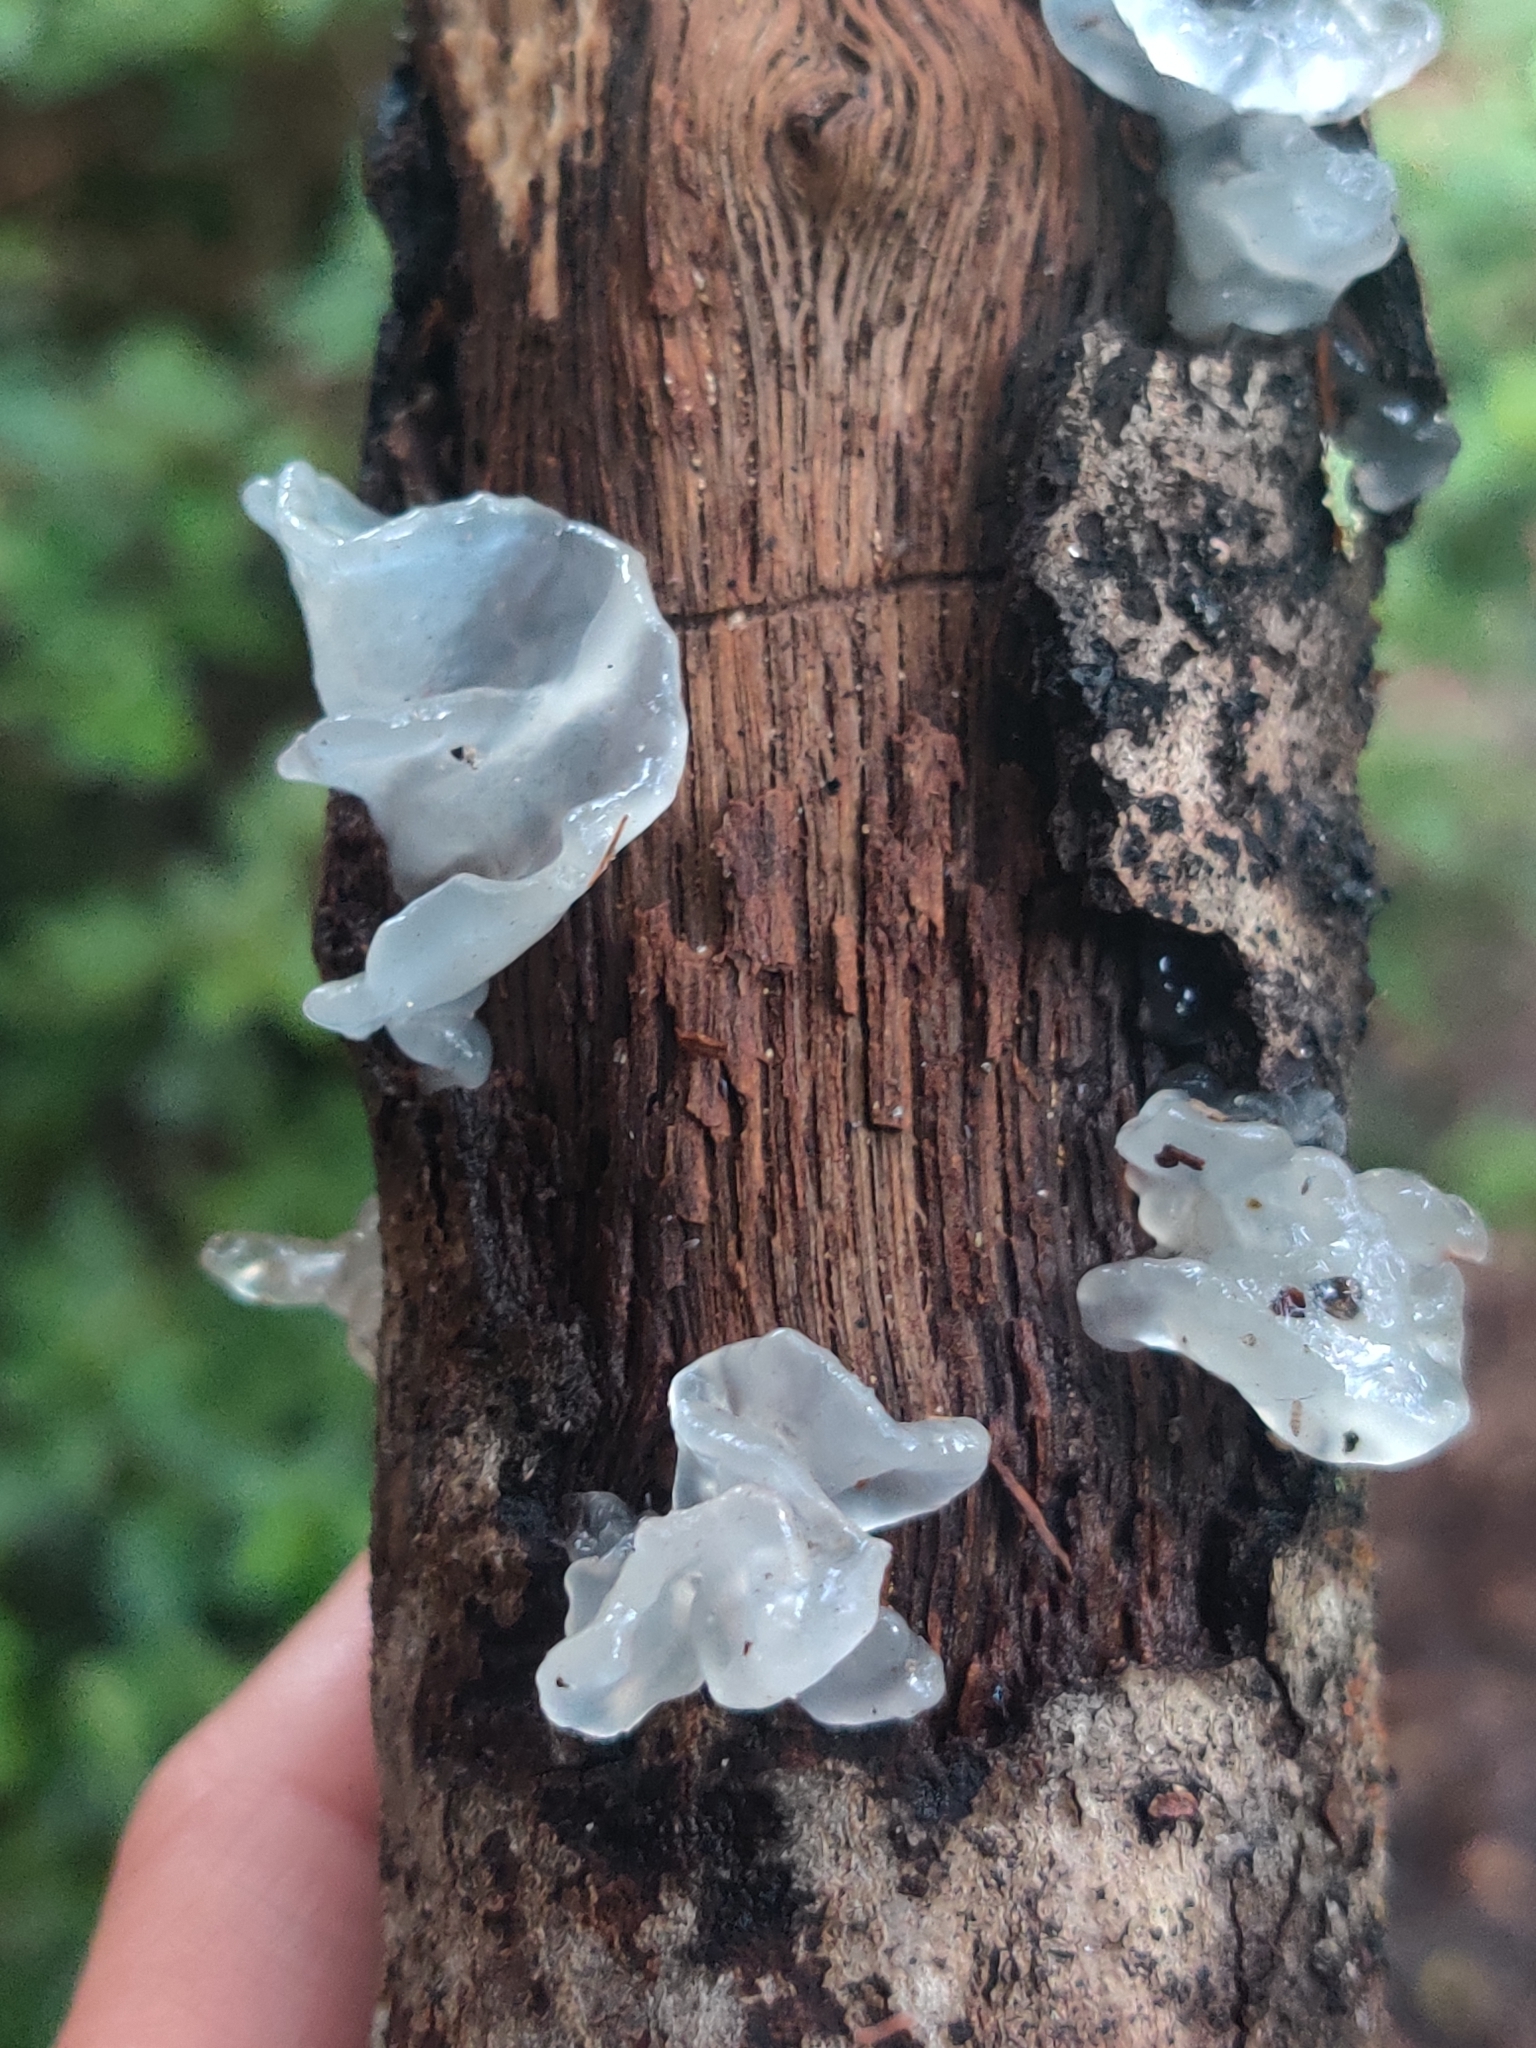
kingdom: Fungi
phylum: Basidiomycota
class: Tremellomycetes
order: Tremellales
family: Tremellaceae
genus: Tremella
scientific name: Tremella fuciformis
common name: Snow fungus
